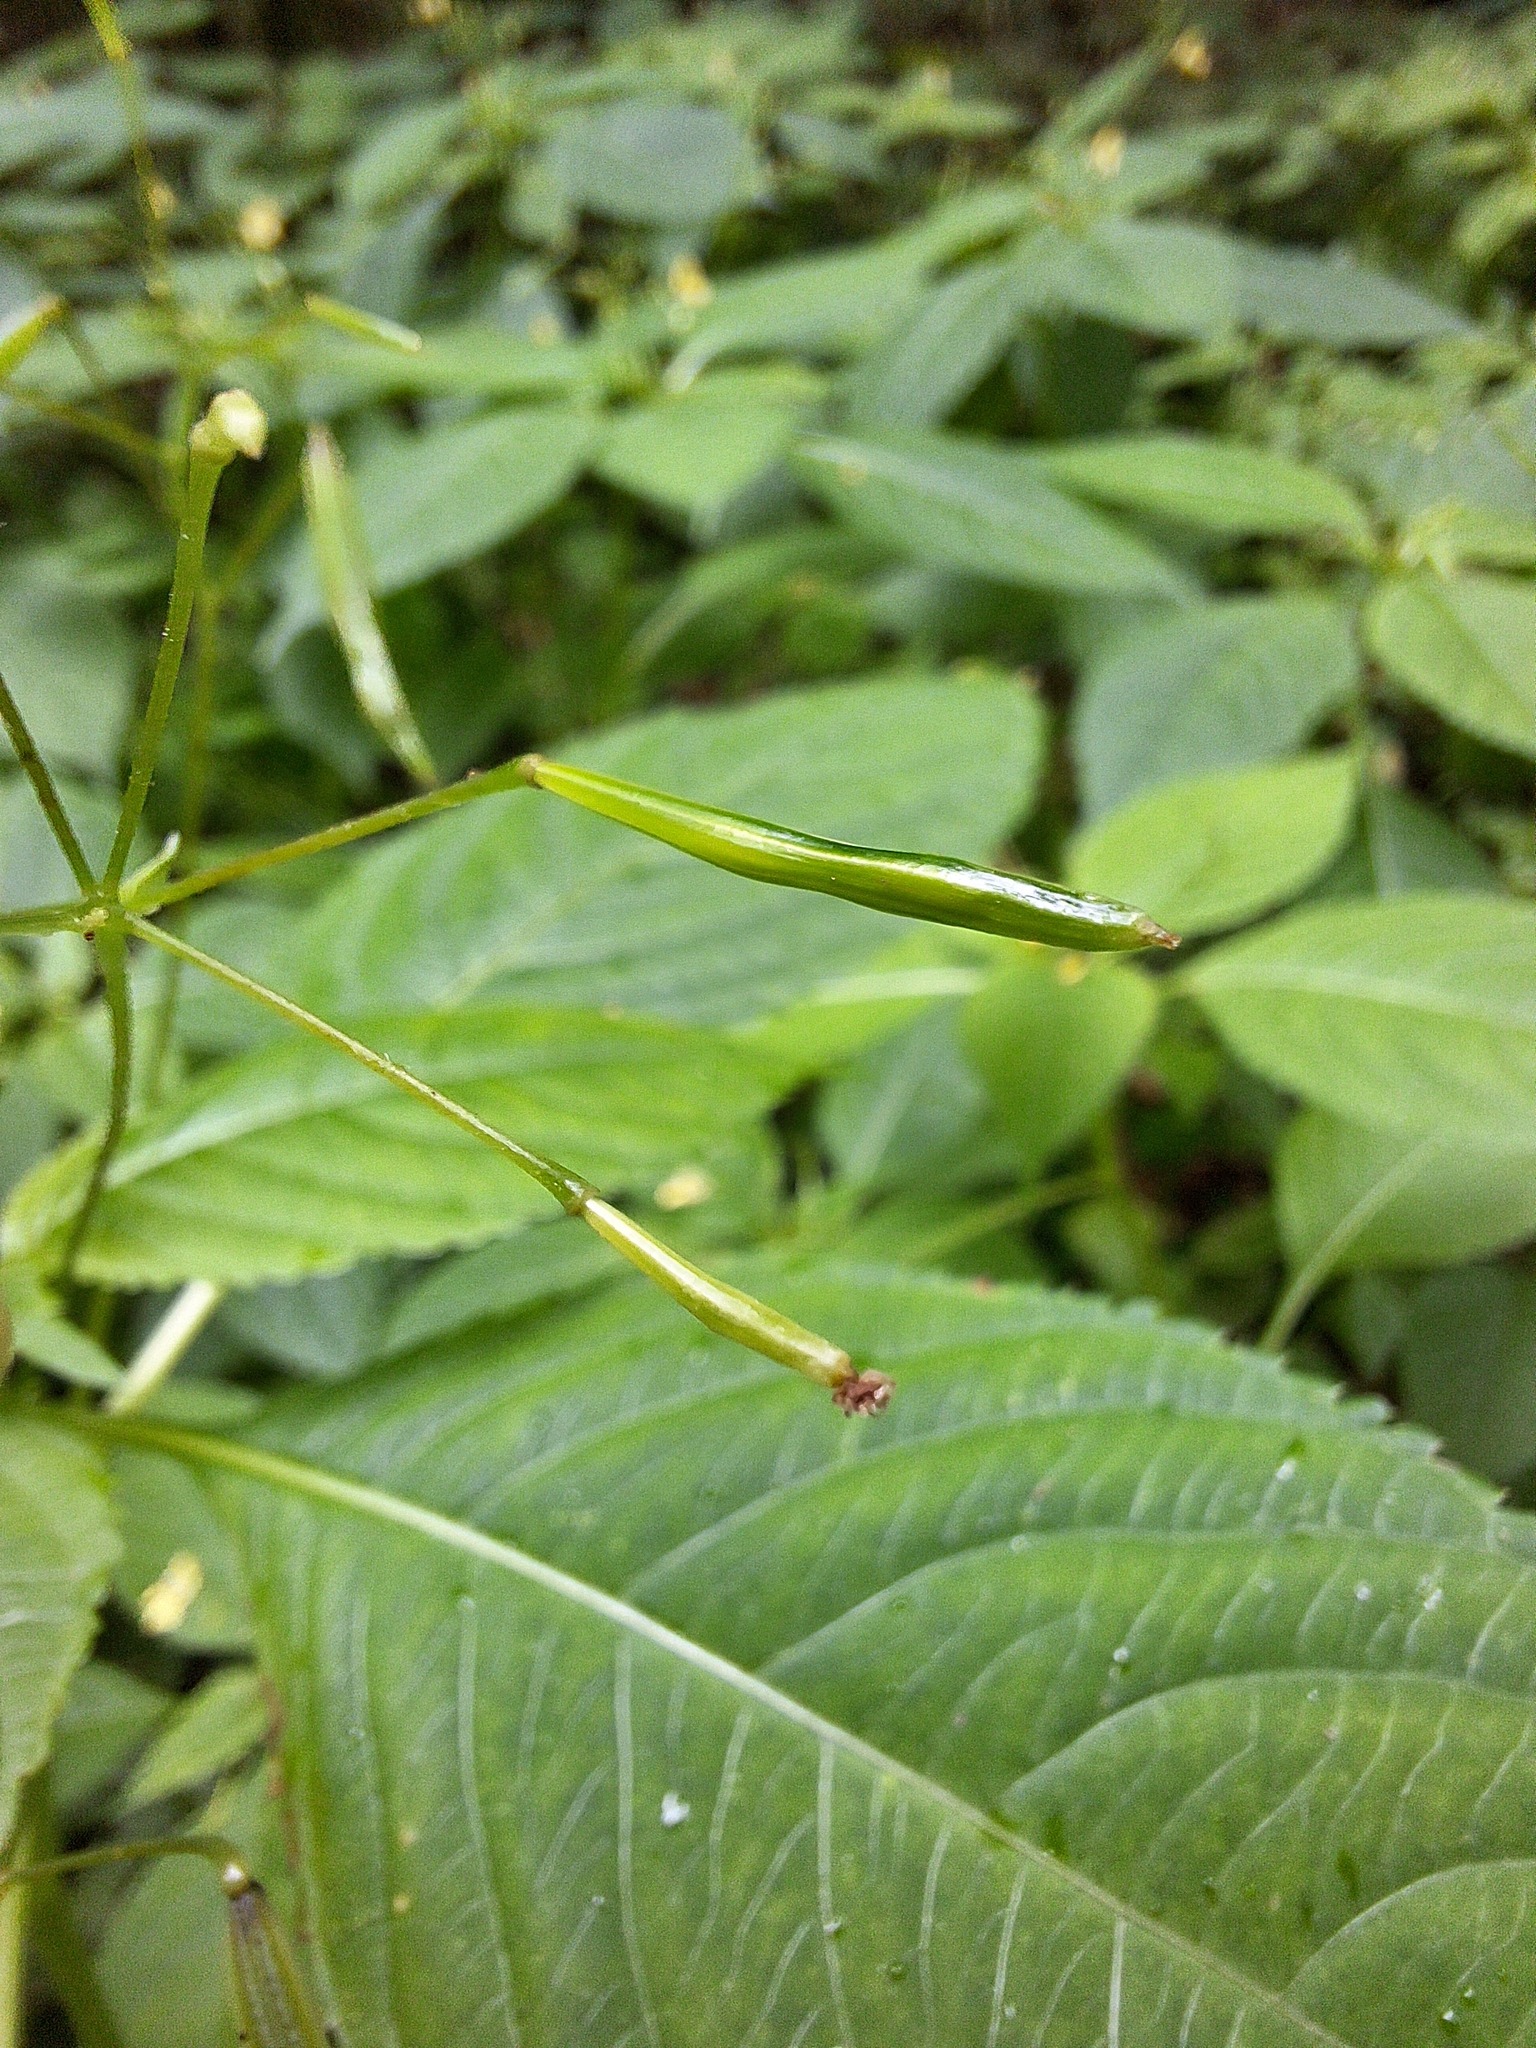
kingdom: Plantae
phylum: Tracheophyta
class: Magnoliopsida
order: Ericales
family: Balsaminaceae
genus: Impatiens
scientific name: Impatiens parviflora
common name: Small balsam
